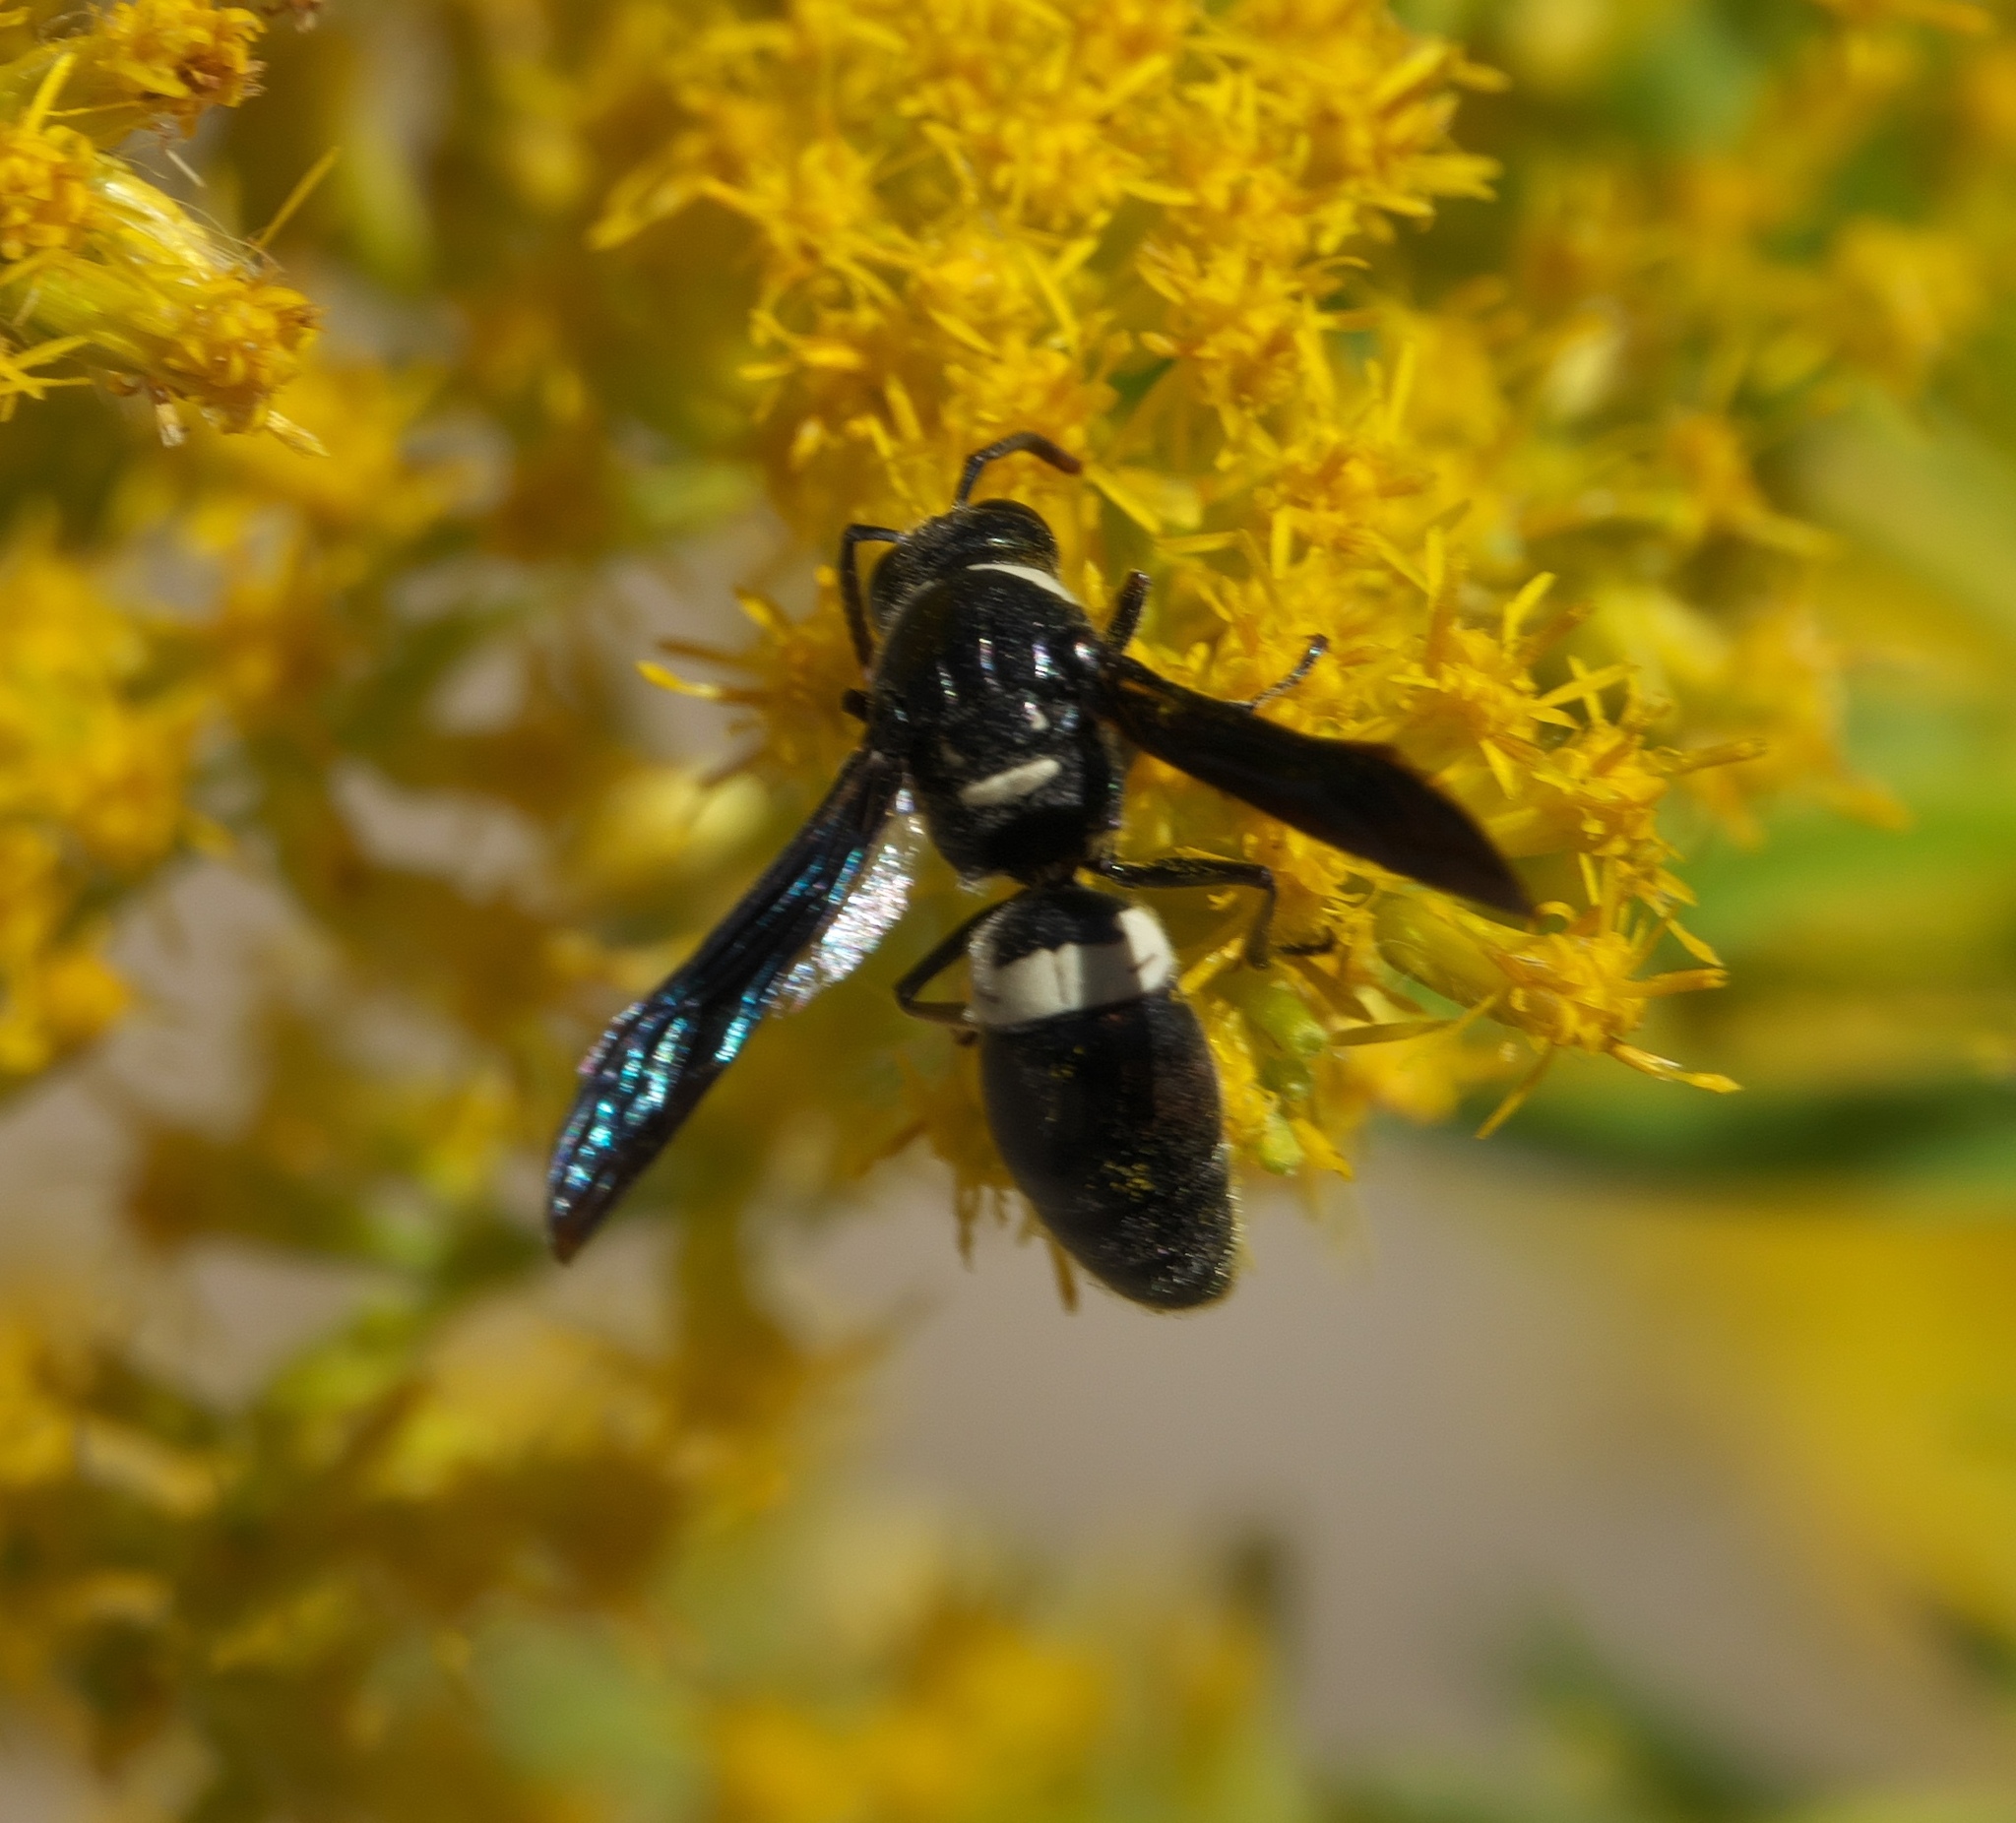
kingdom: Animalia
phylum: Arthropoda
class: Insecta
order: Hymenoptera
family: Eumenidae
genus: Monobia
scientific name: Monobia quadridens
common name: Four-toothed mason wasp
